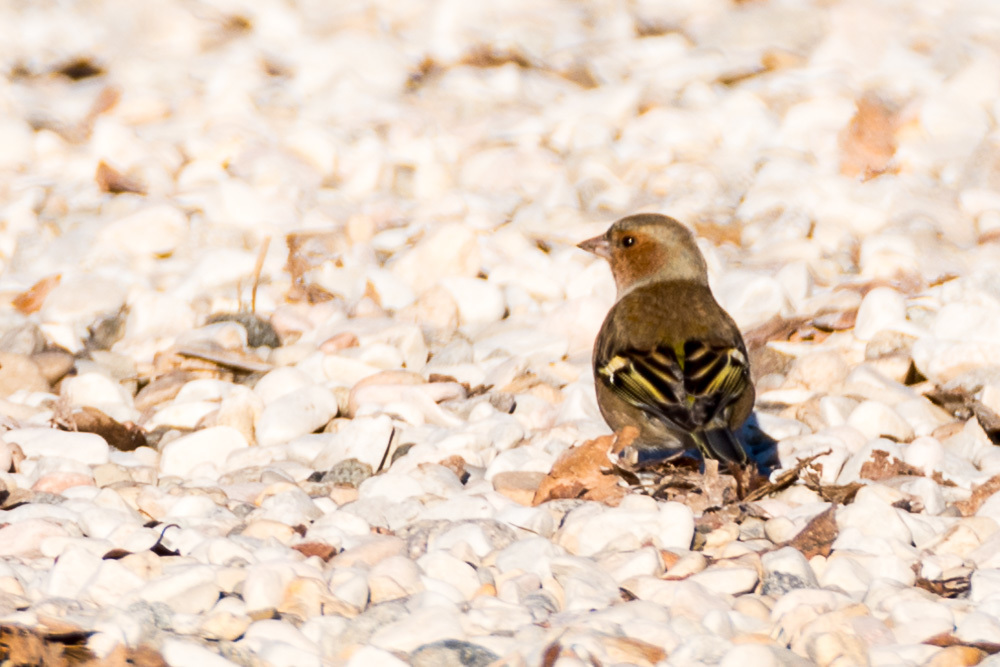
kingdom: Animalia
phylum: Chordata
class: Aves
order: Passeriformes
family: Fringillidae
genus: Fringilla
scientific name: Fringilla coelebs
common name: Common chaffinch
